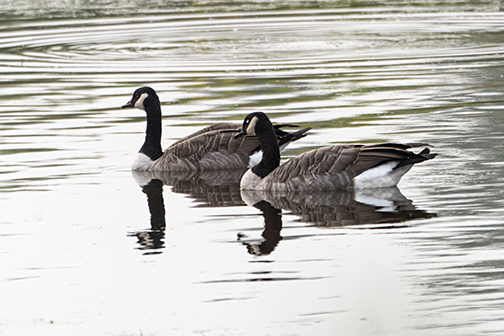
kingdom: Animalia
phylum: Chordata
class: Aves
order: Anseriformes
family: Anatidae
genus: Branta
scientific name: Branta canadensis
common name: Canada goose
